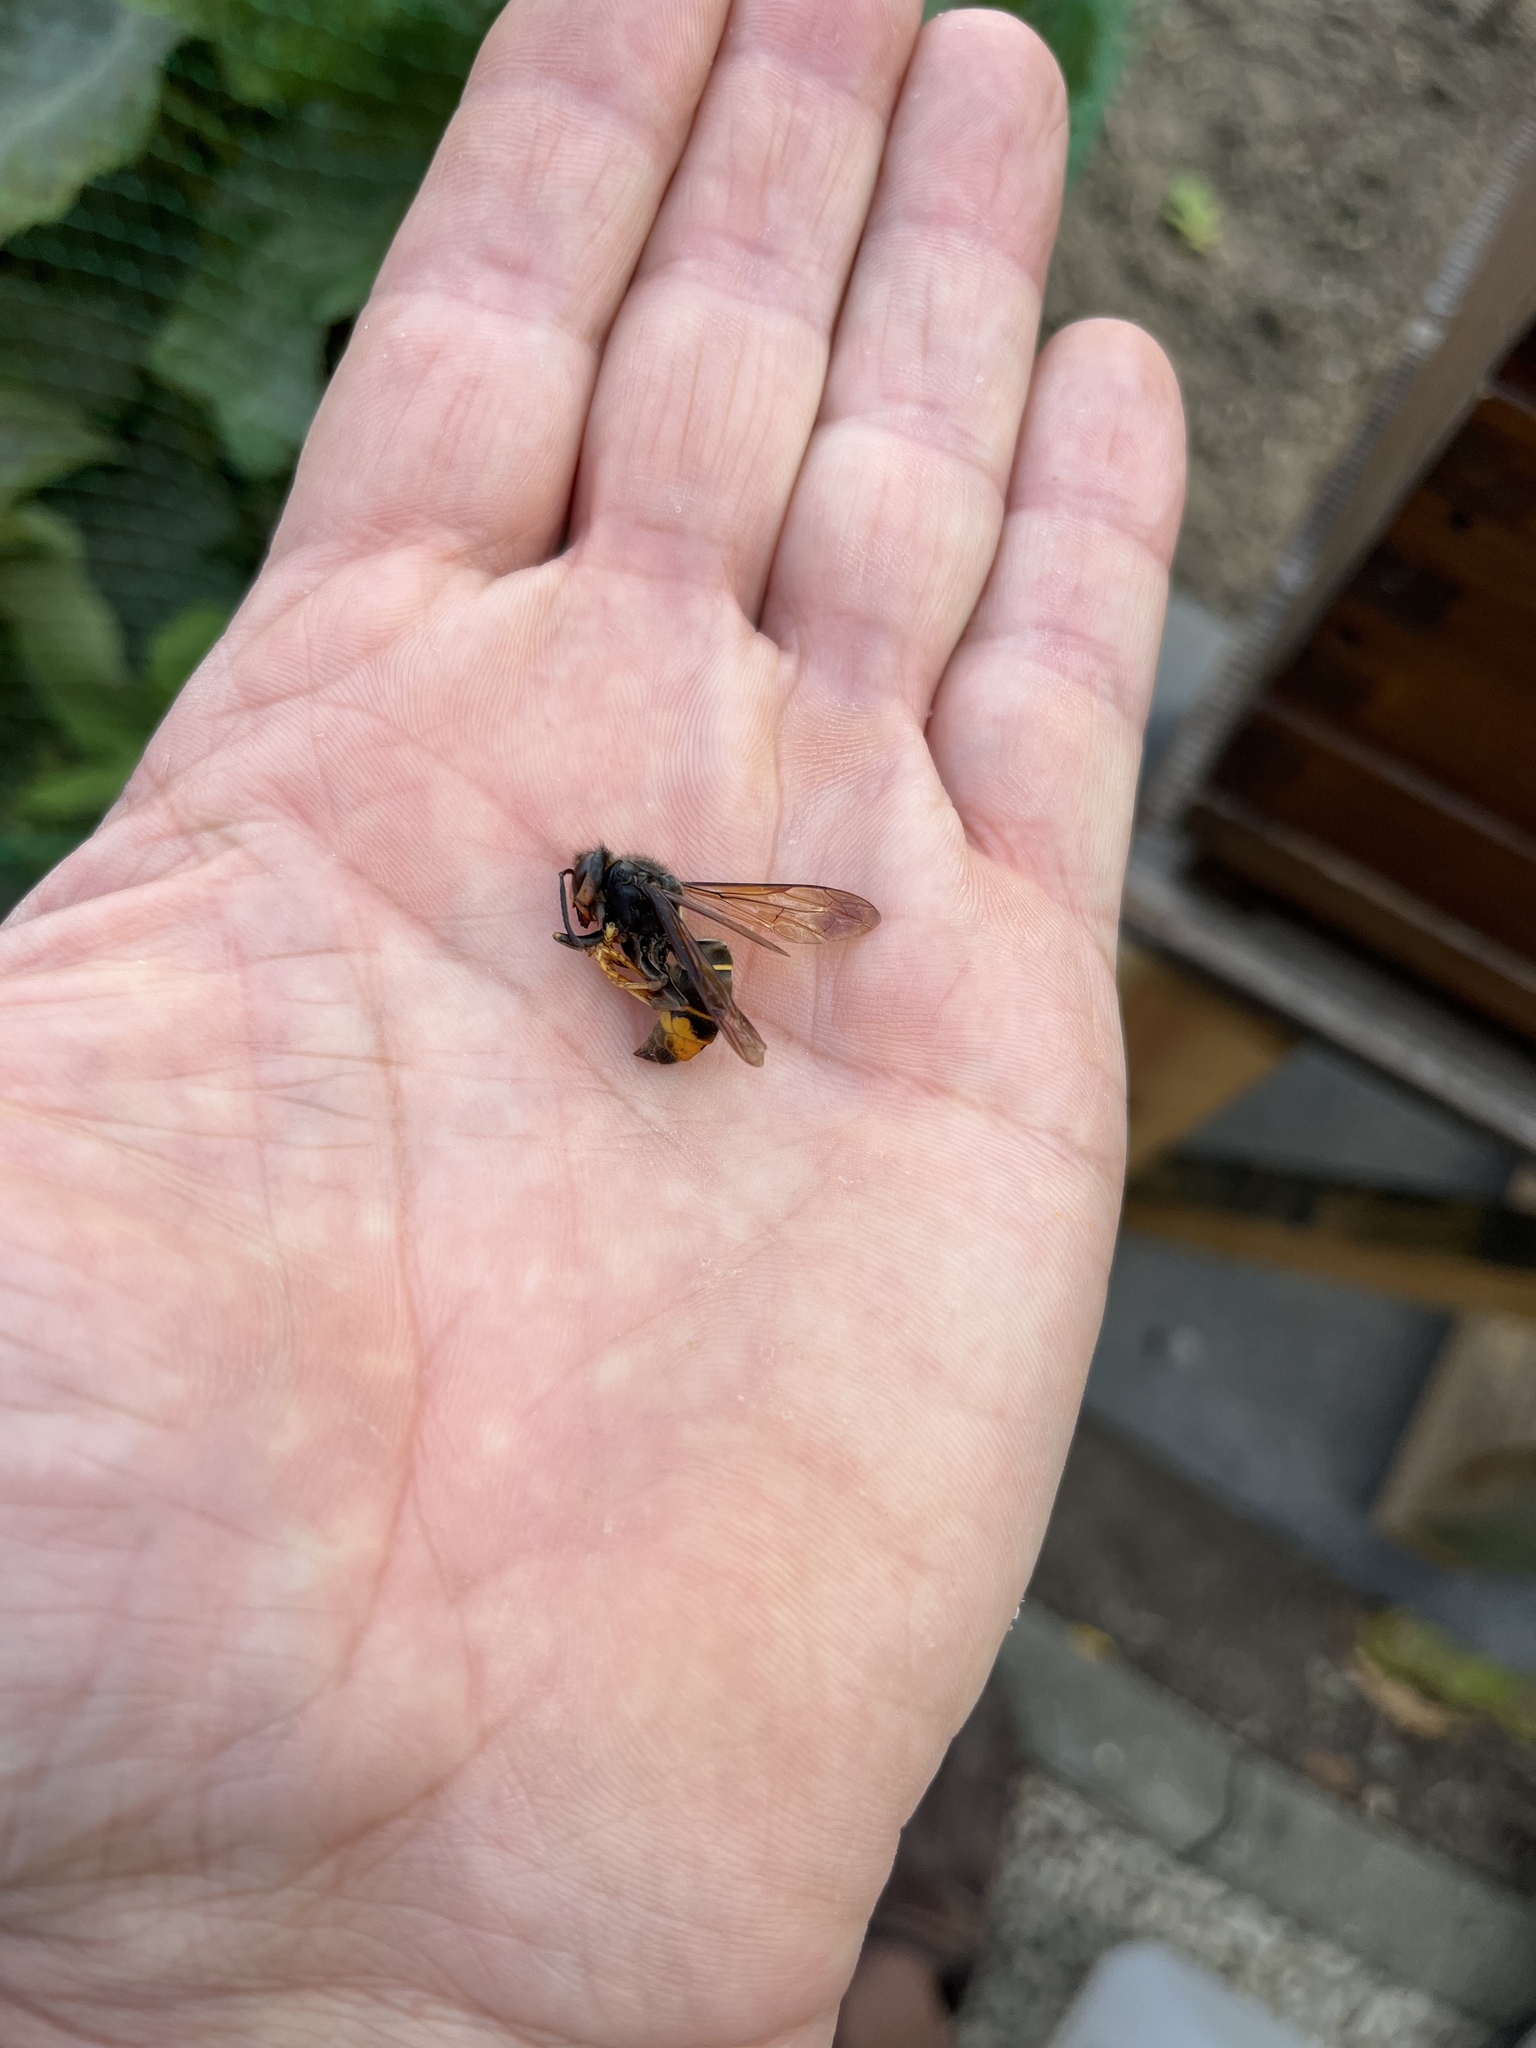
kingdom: Animalia
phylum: Arthropoda
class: Insecta
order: Hymenoptera
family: Vespidae
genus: Vespa
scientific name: Vespa velutina
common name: Asian hornet
